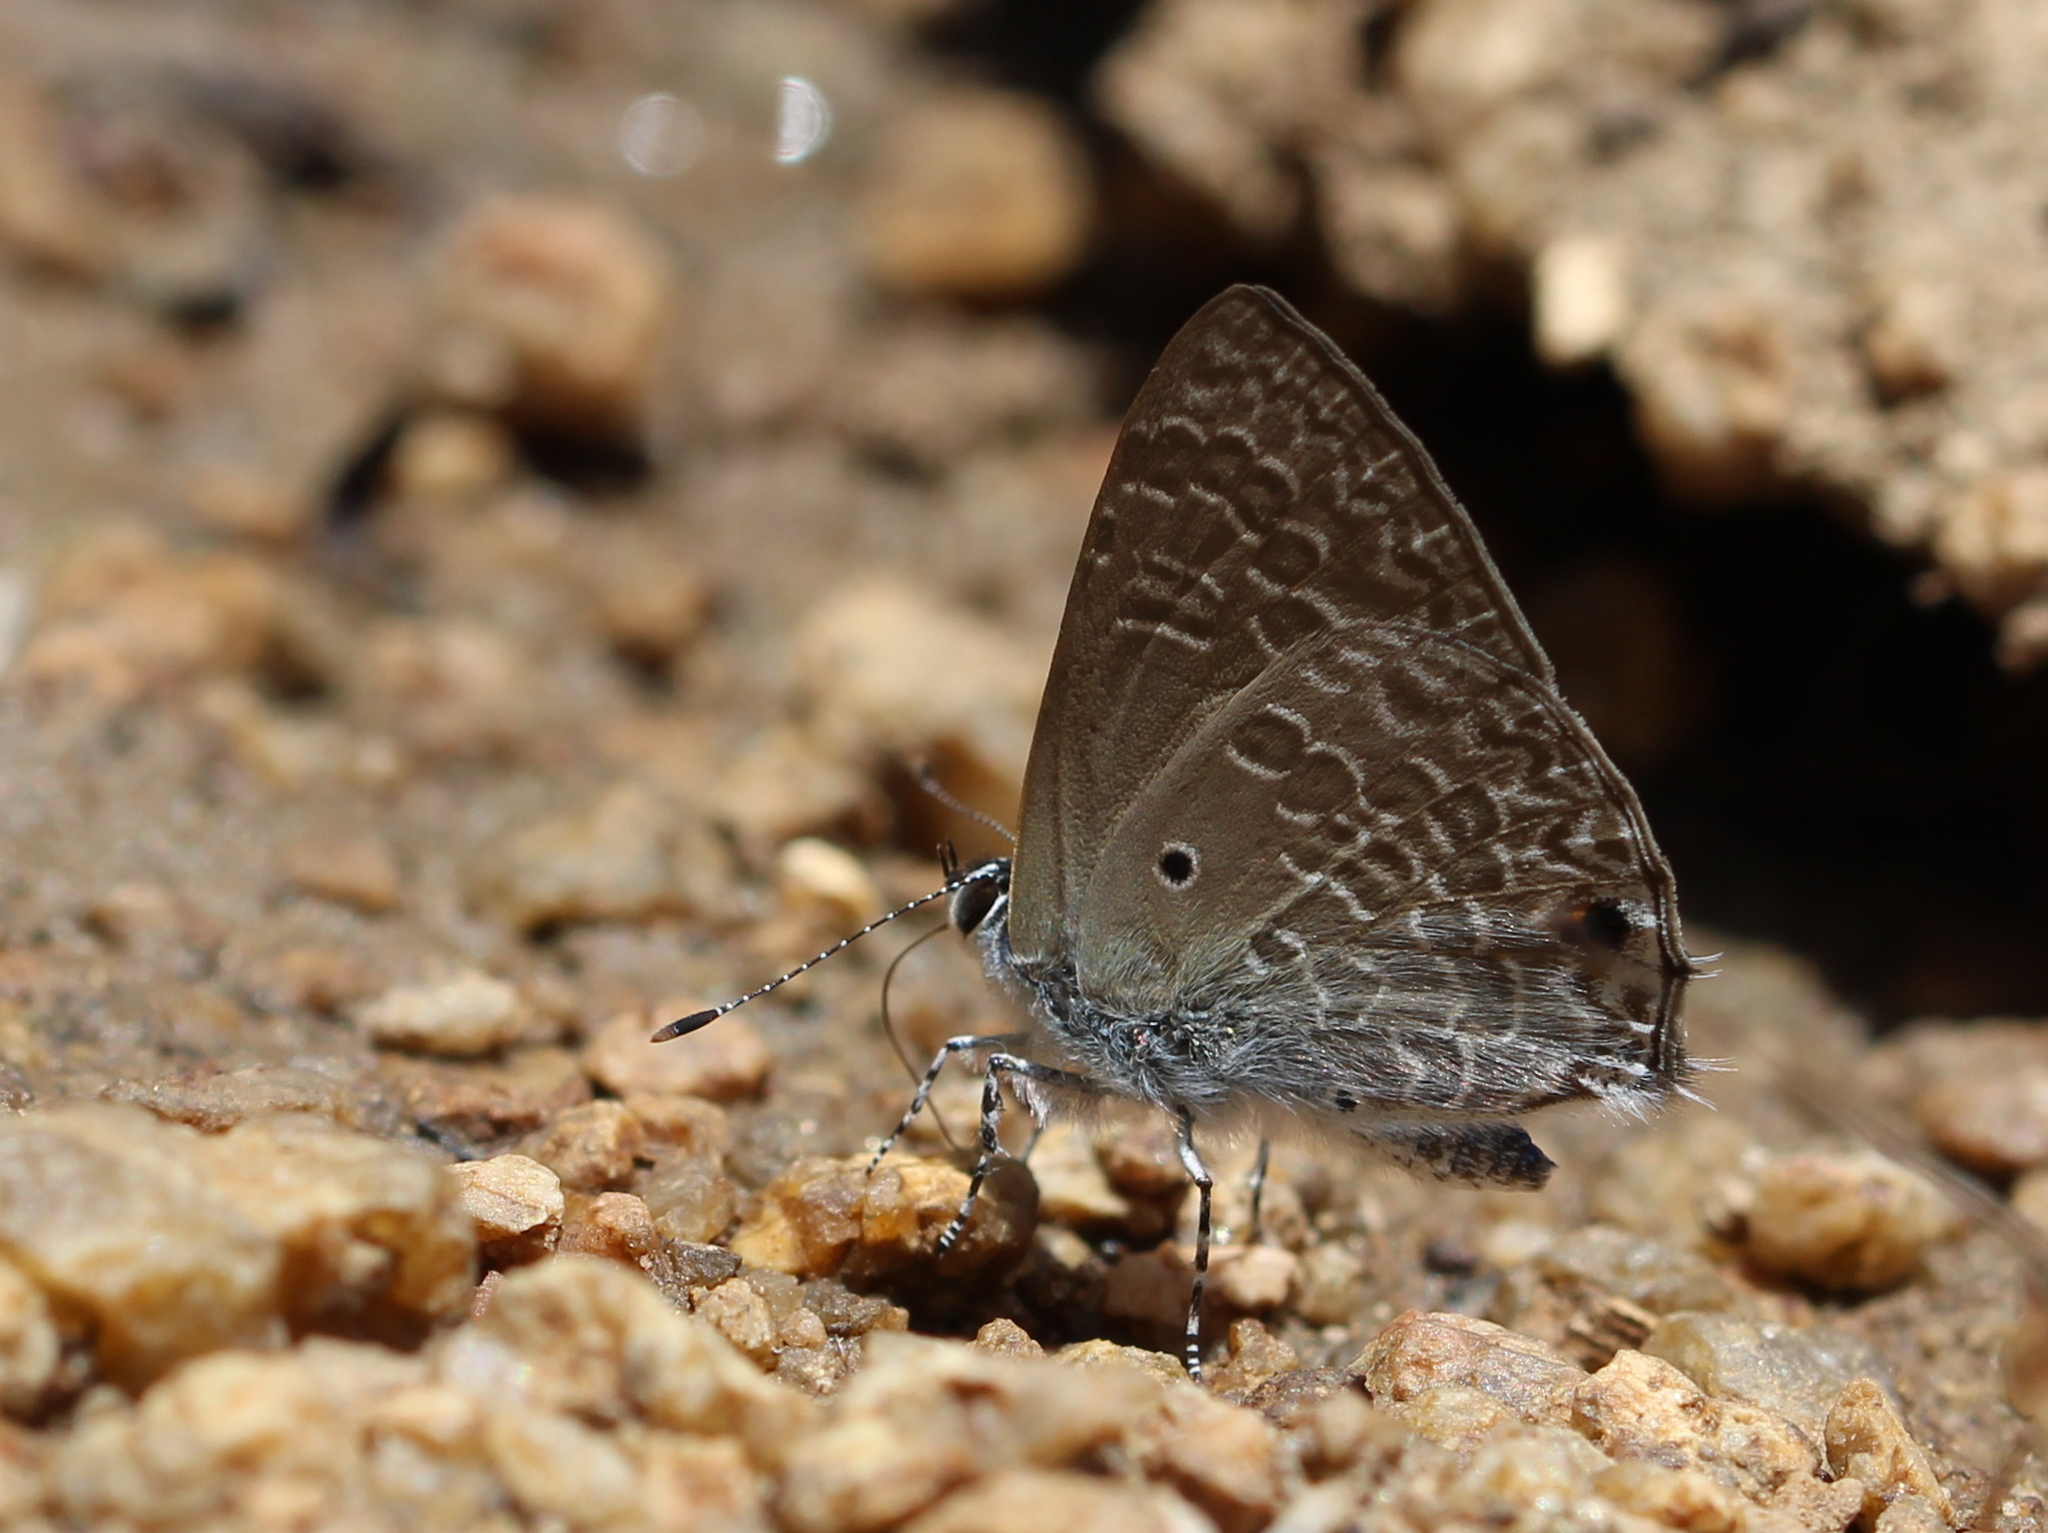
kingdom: Animalia
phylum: Arthropoda
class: Insecta
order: Lepidoptera
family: Lycaenidae
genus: Anthene
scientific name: Anthene lycaenina
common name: Pointed ciliate blue
